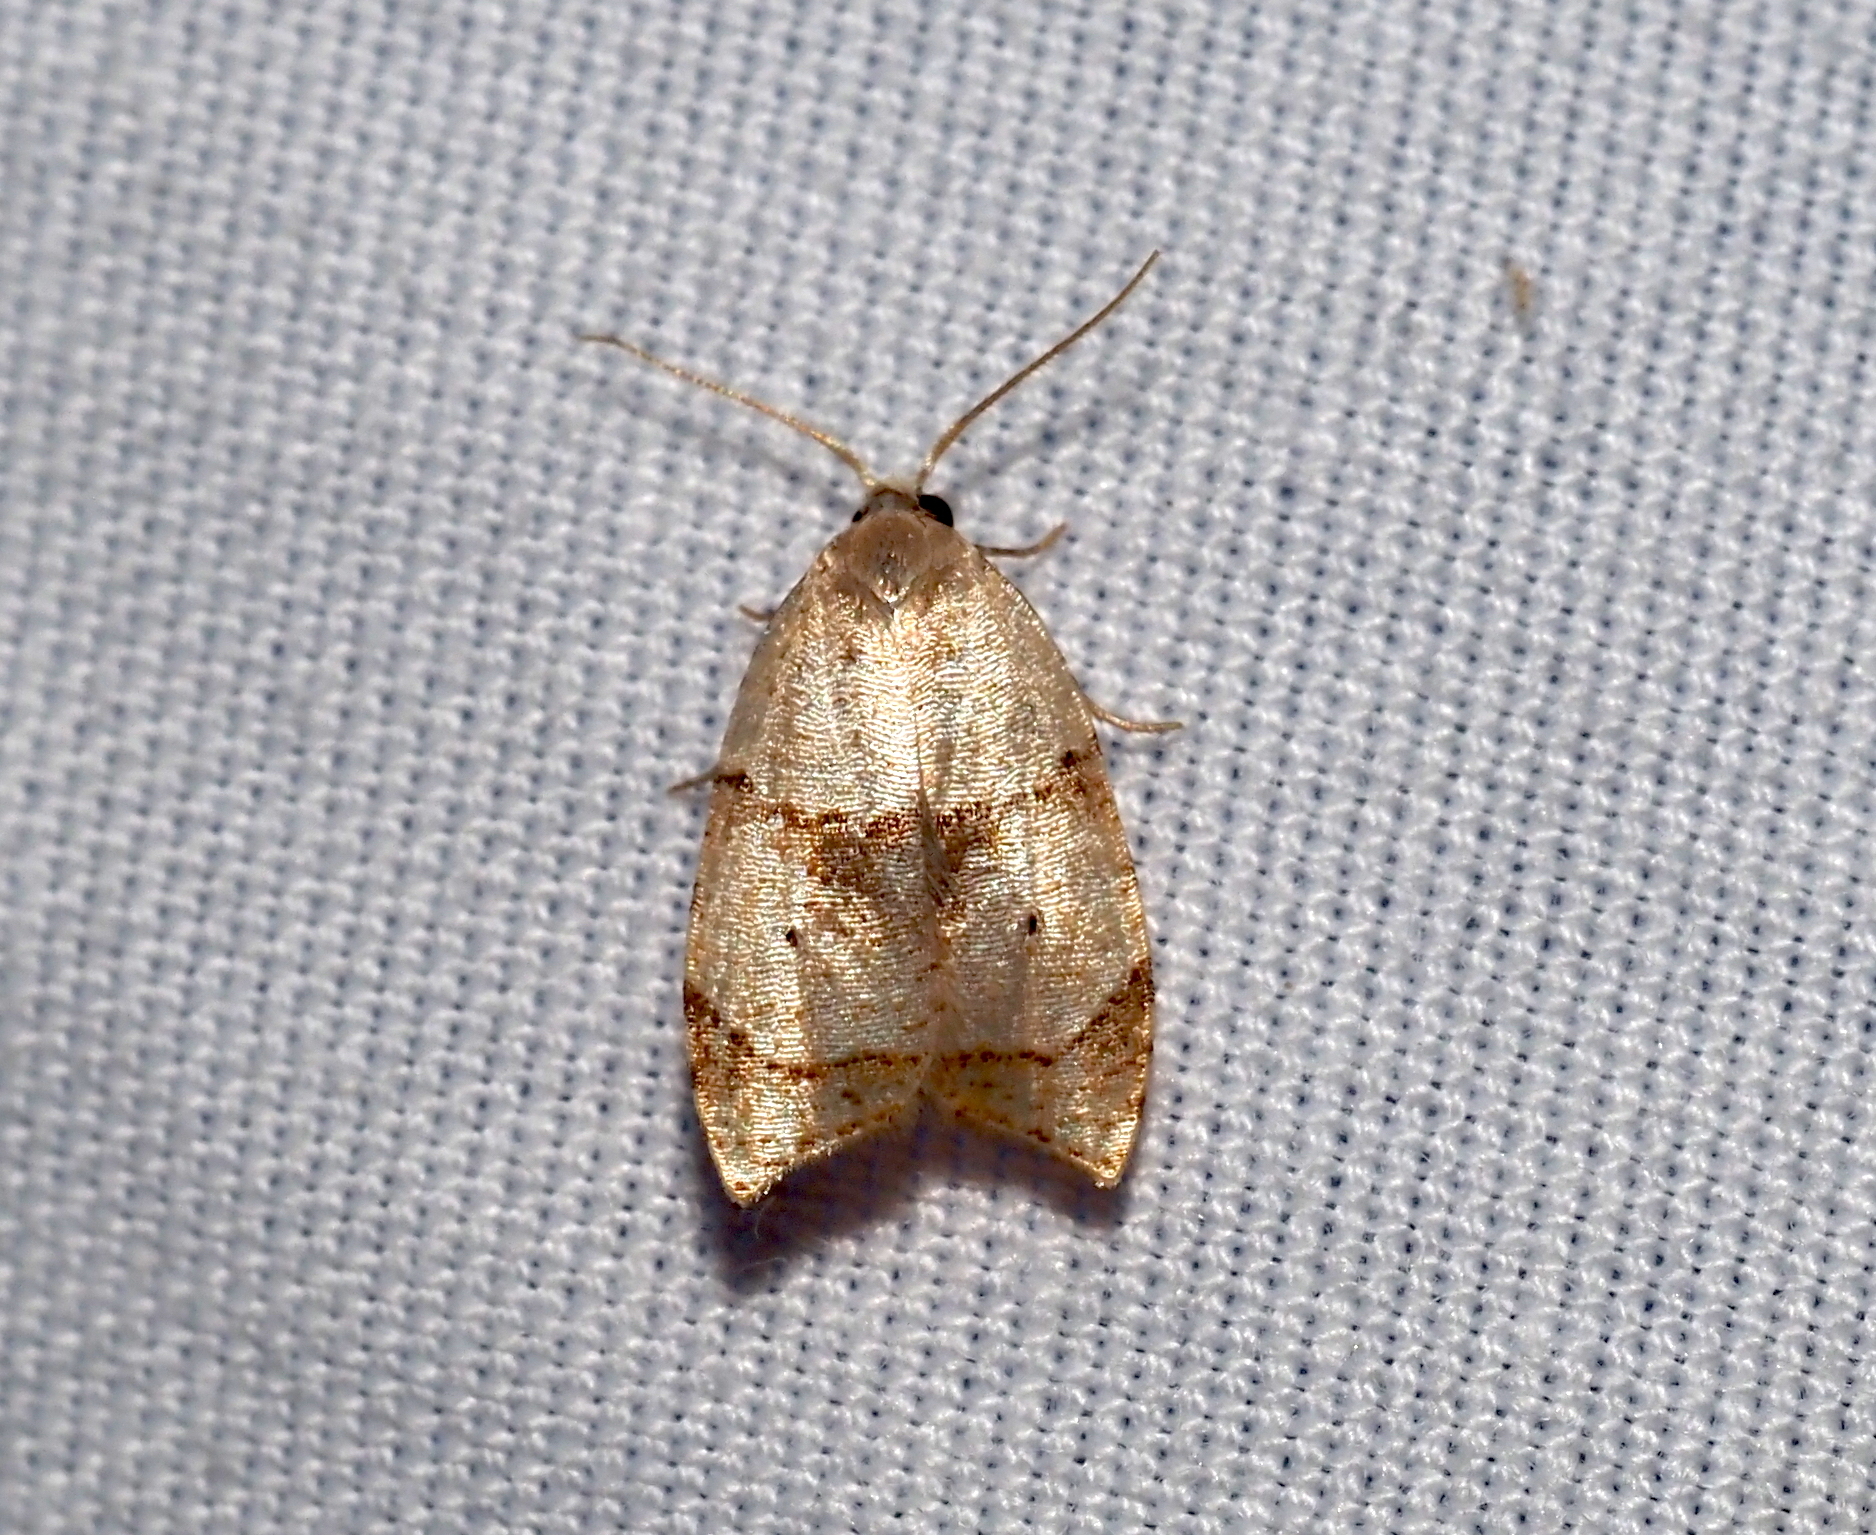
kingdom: Animalia
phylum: Arthropoda
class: Insecta
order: Lepidoptera
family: Tortricidae
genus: Coelostathma
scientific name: Coelostathma discopunctana
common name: Batman moth
